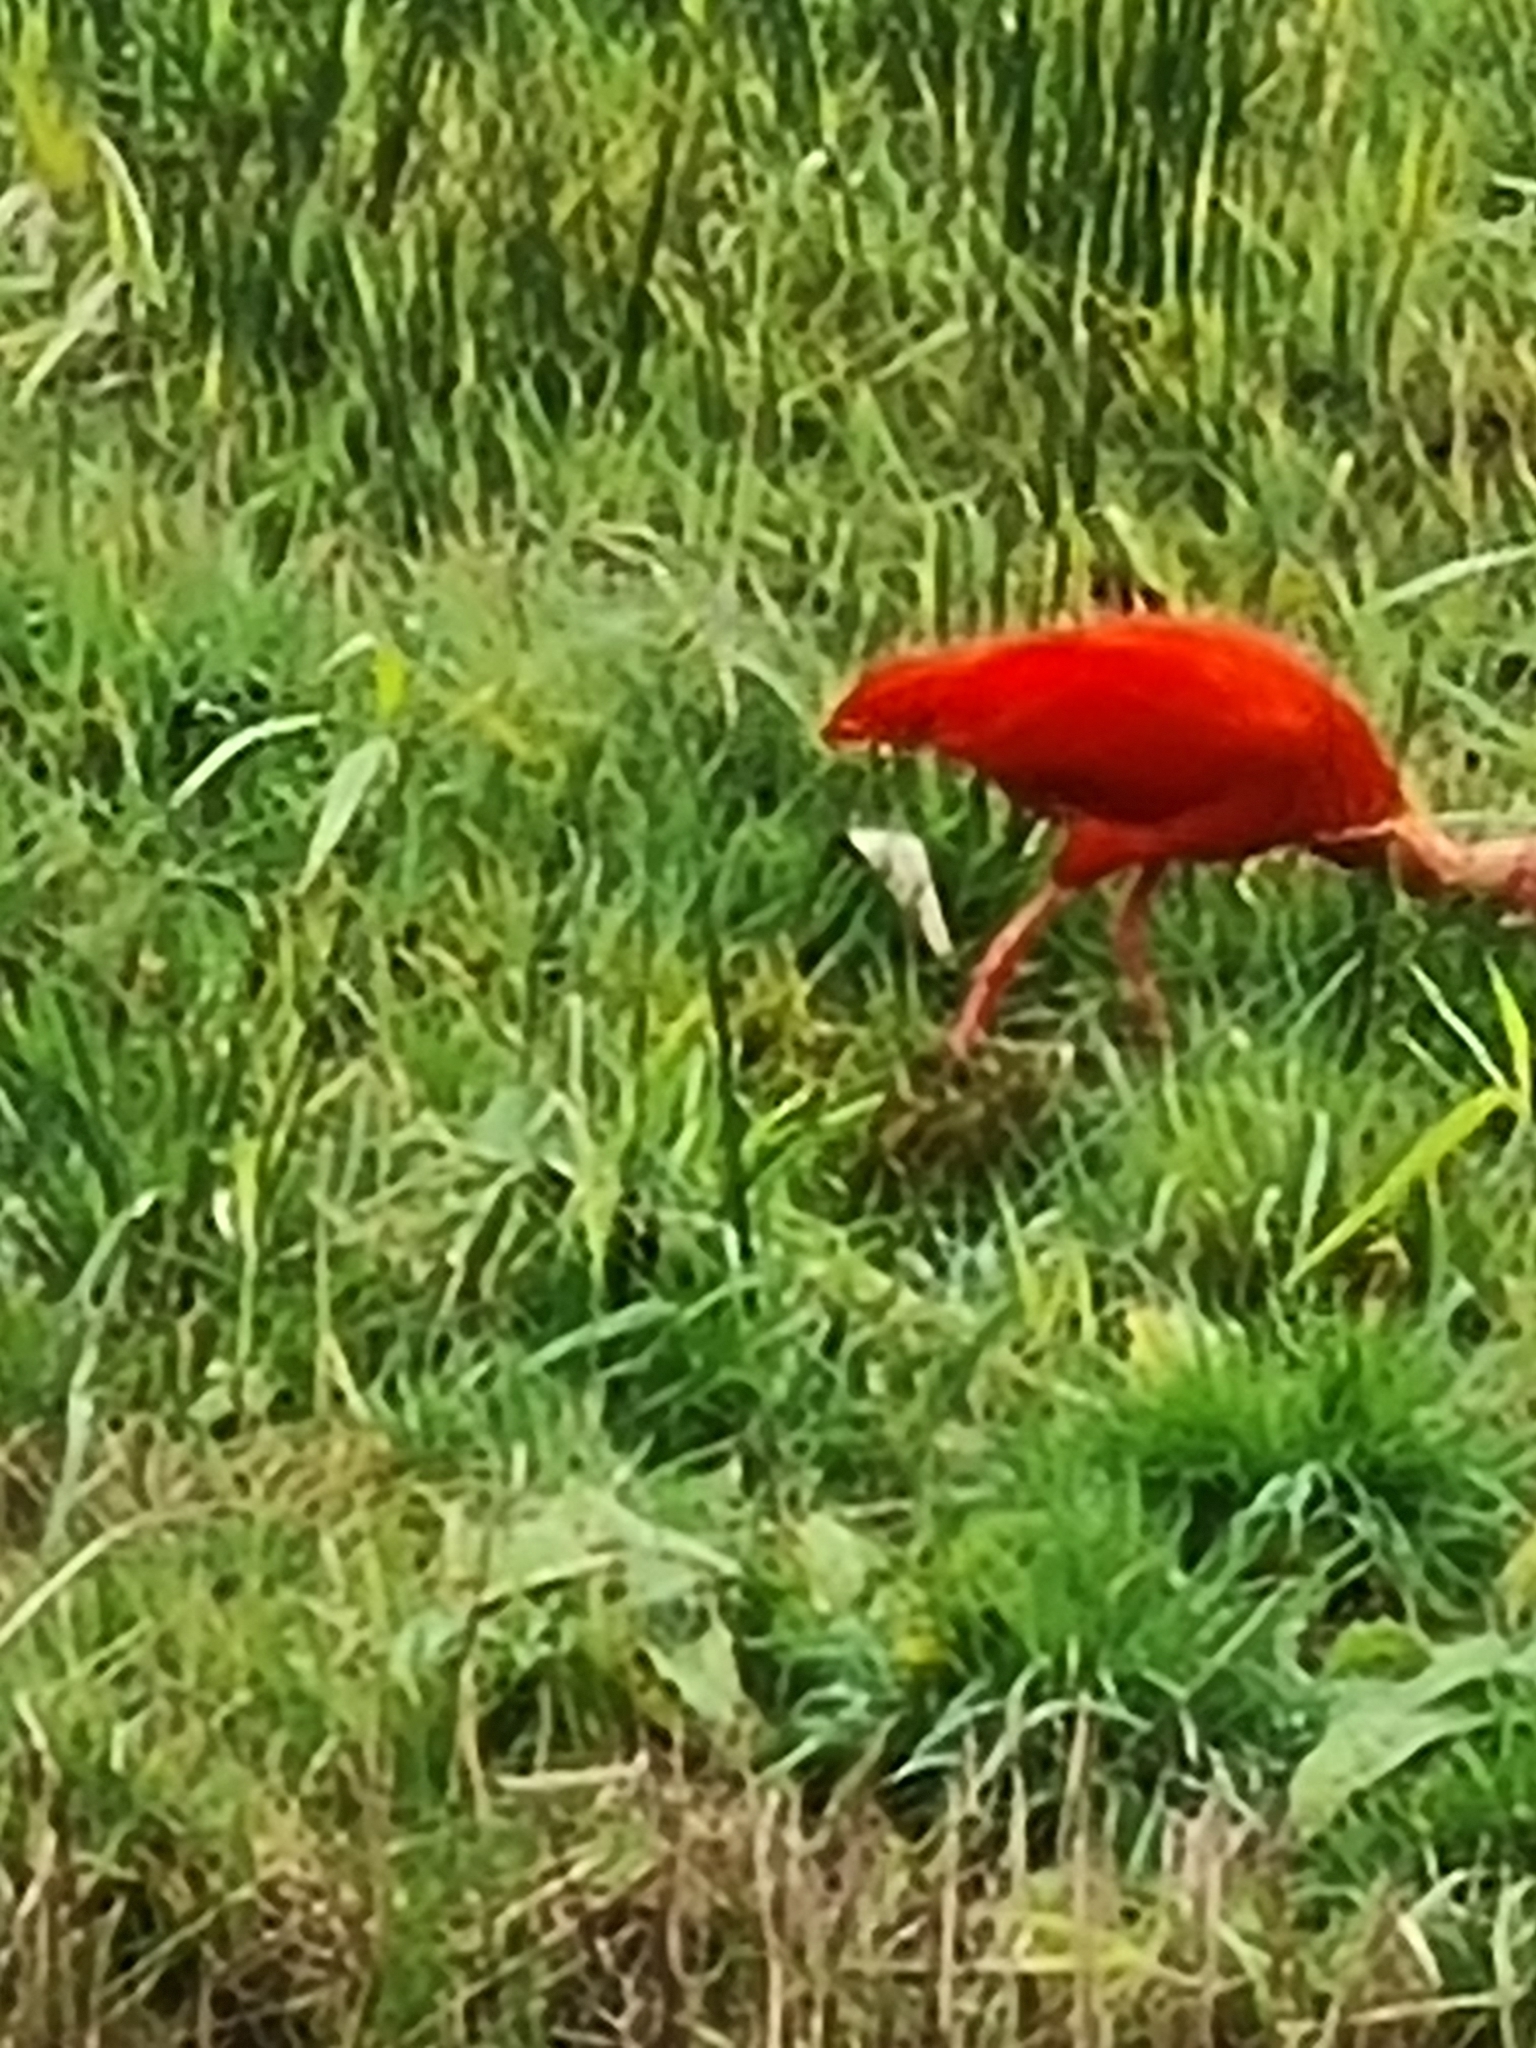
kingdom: Animalia
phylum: Chordata
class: Aves
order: Pelecaniformes
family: Threskiornithidae
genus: Eudocimus
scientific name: Eudocimus ruber
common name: Scarlet ibis
